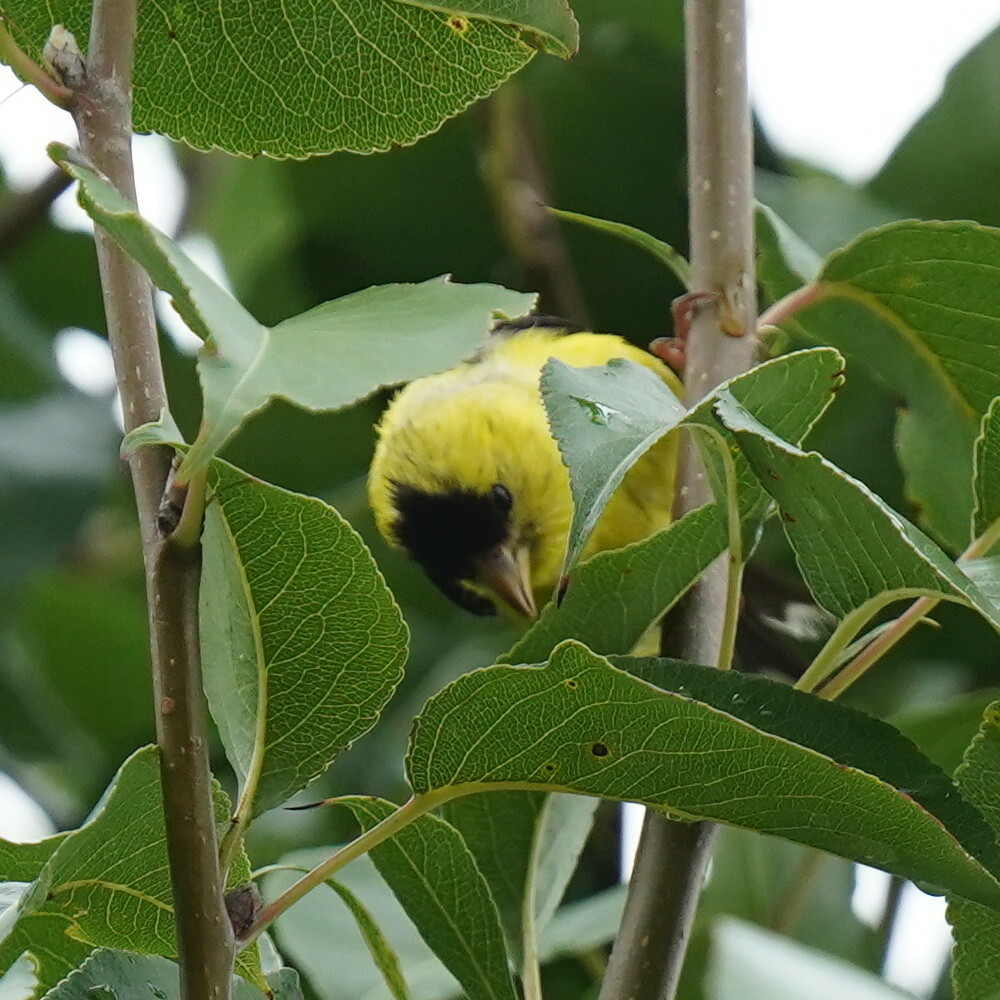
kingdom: Animalia
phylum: Chordata
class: Aves
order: Passeriformes
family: Fringillidae
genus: Spinus
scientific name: Spinus tristis
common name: American goldfinch
